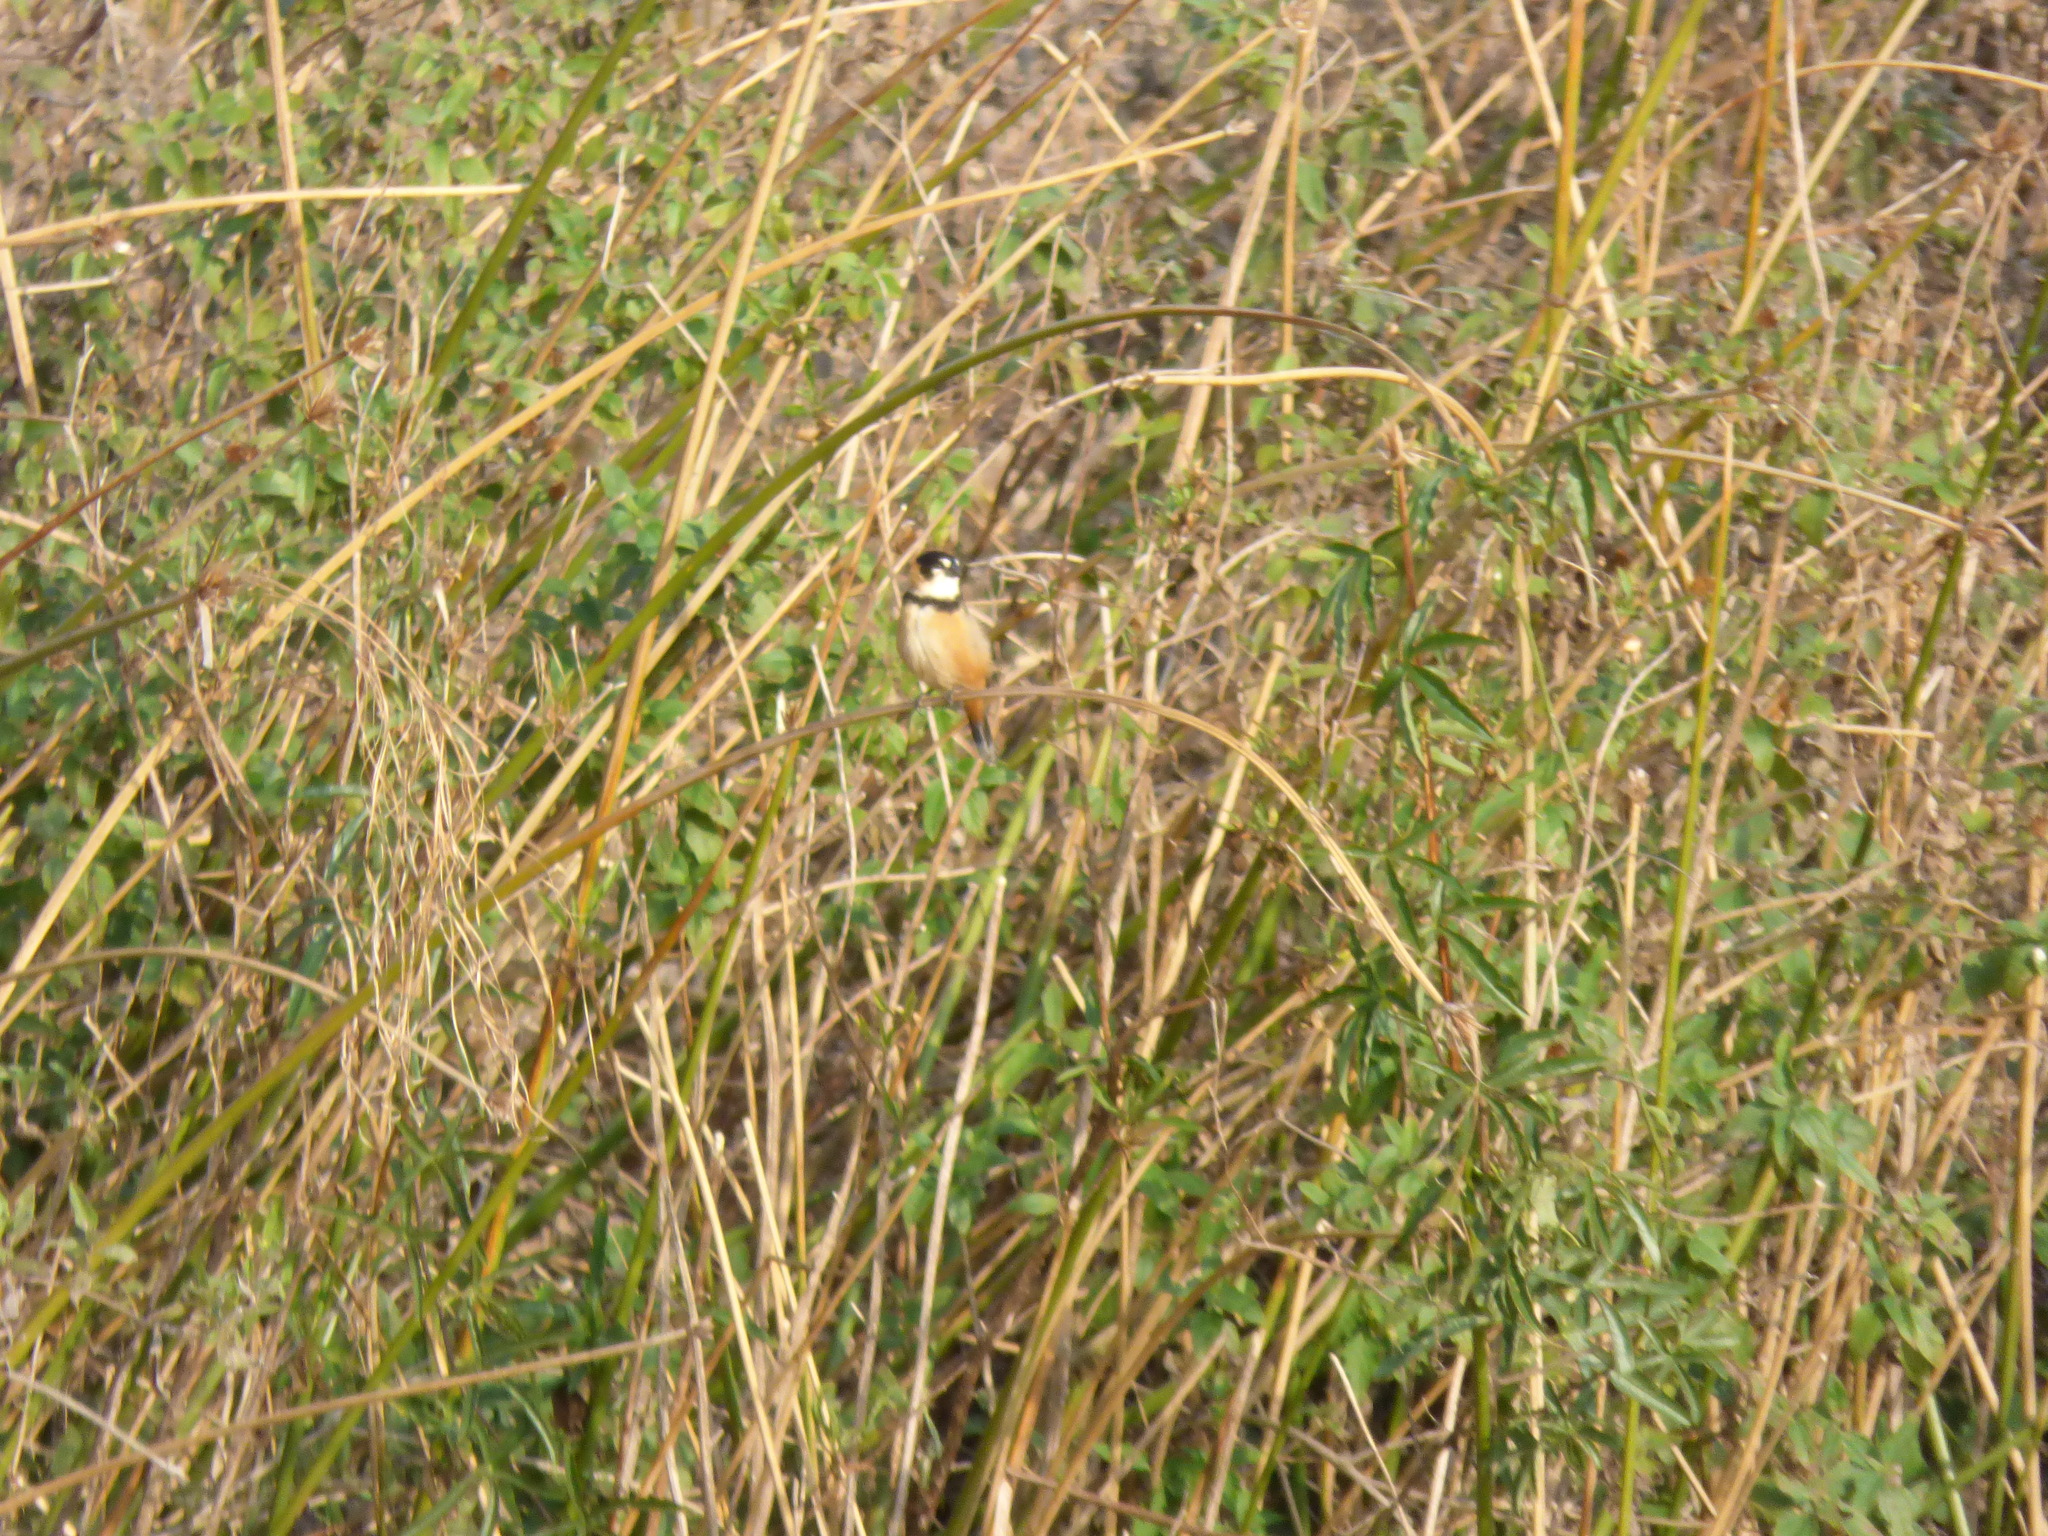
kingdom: Animalia
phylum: Chordata
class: Aves
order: Passeriformes
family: Thraupidae
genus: Sporophila
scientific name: Sporophila collaris
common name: Rusty-collared seedeater
